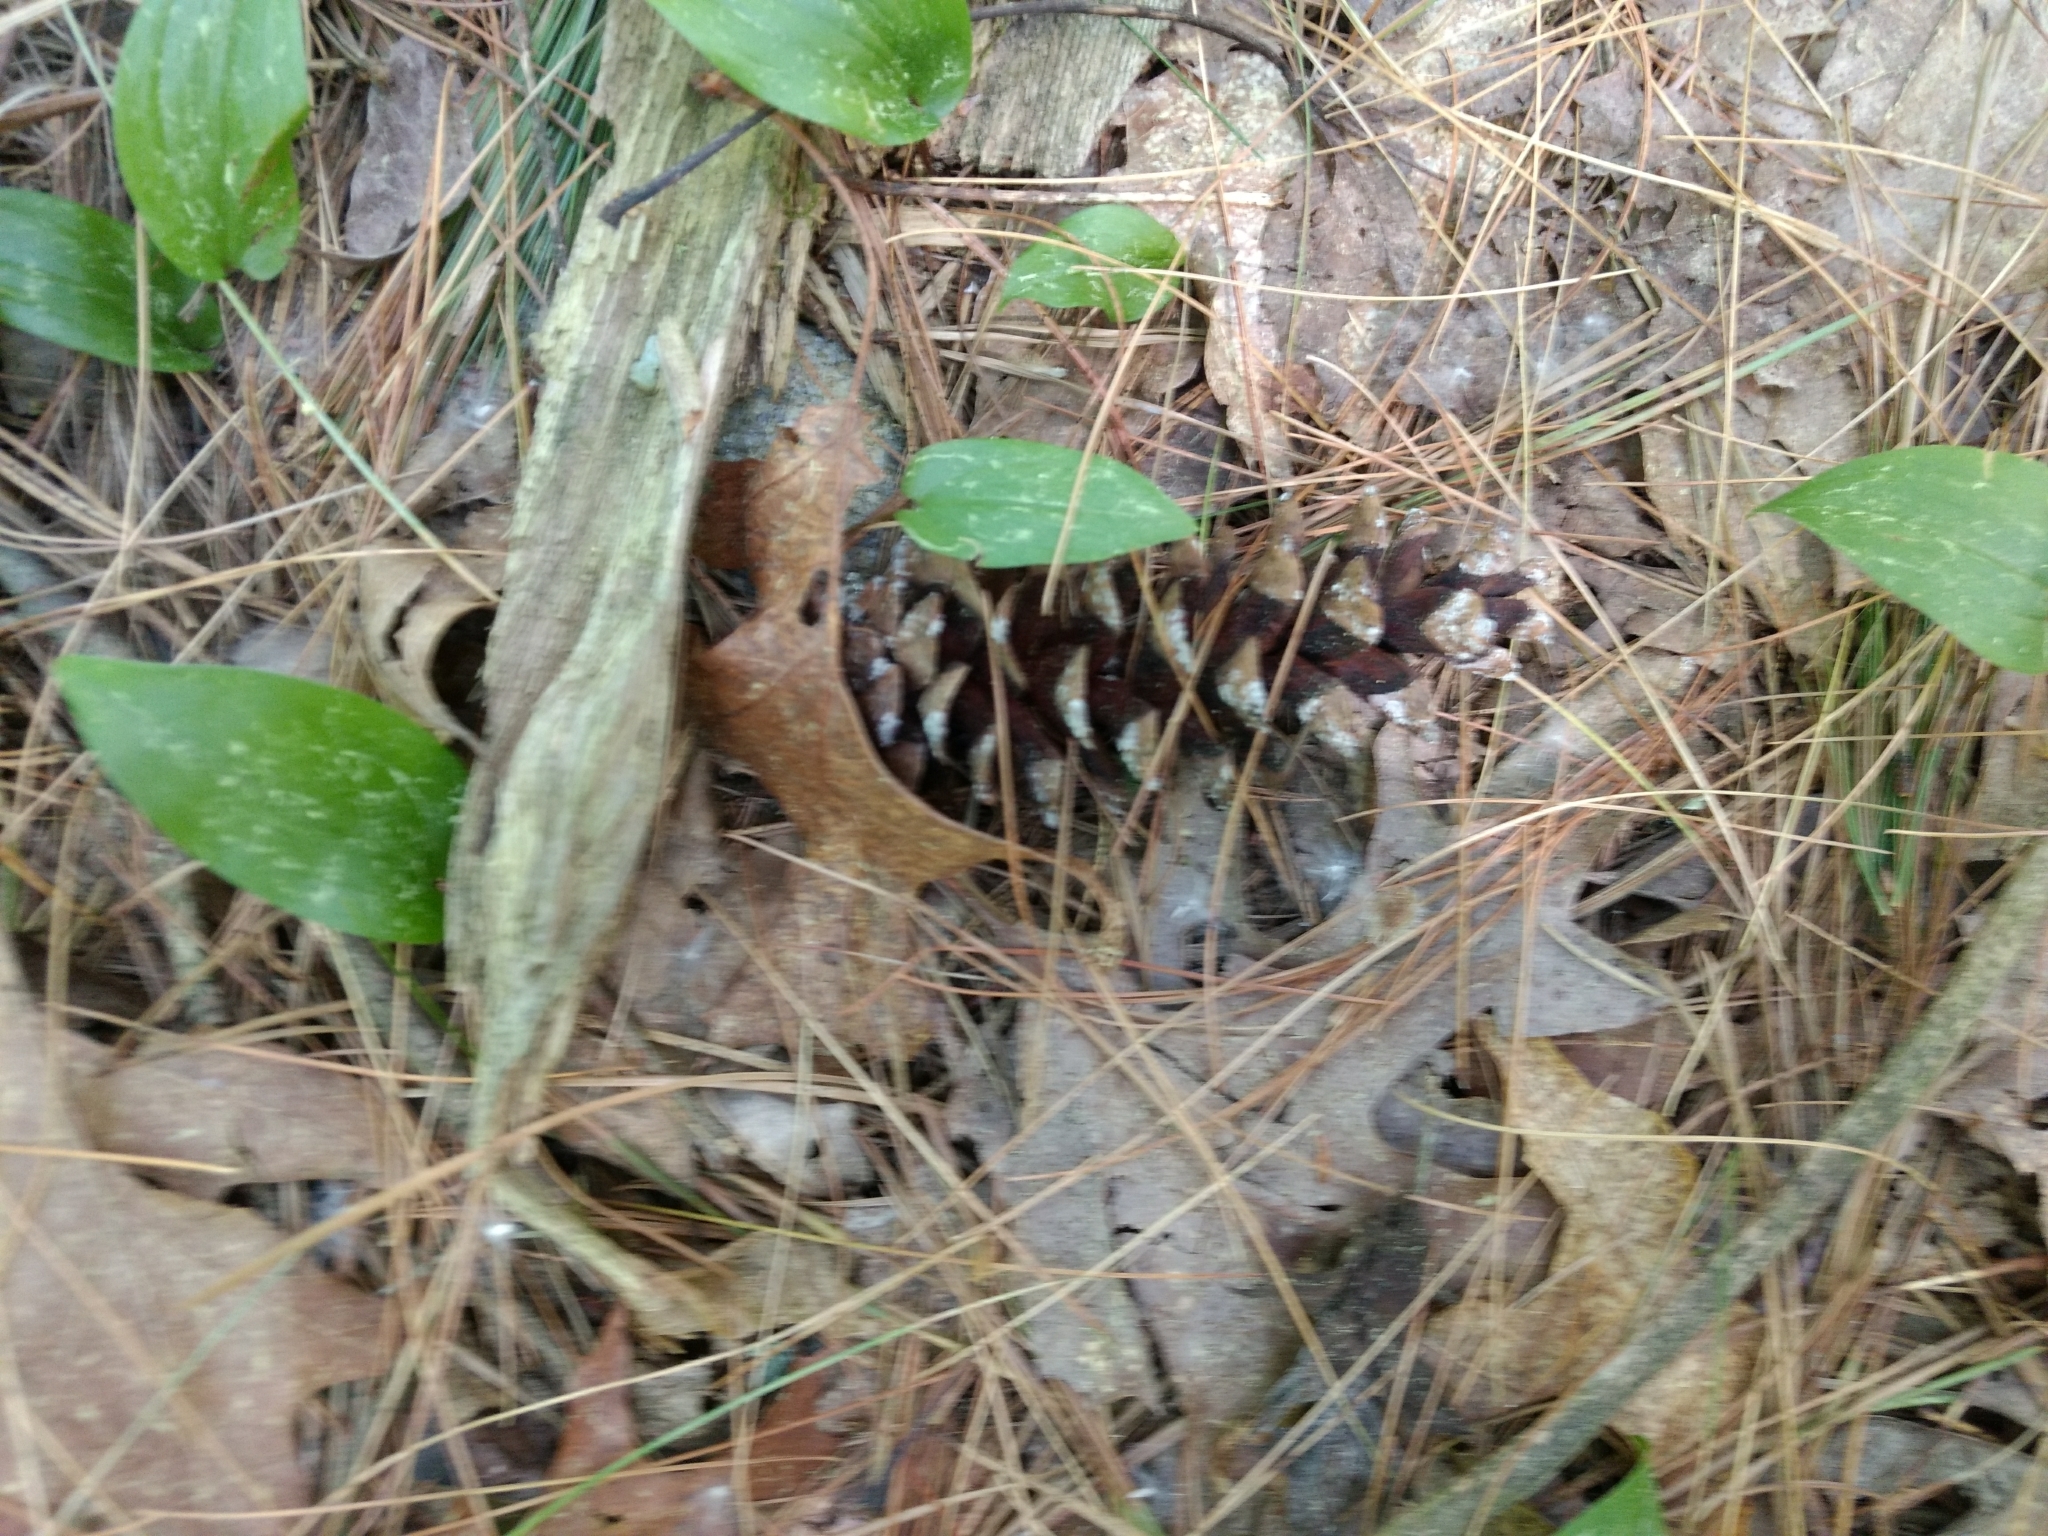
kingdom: Plantae
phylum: Tracheophyta
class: Pinopsida
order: Pinales
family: Pinaceae
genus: Pinus
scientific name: Pinus strobus
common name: Weymouth pine
